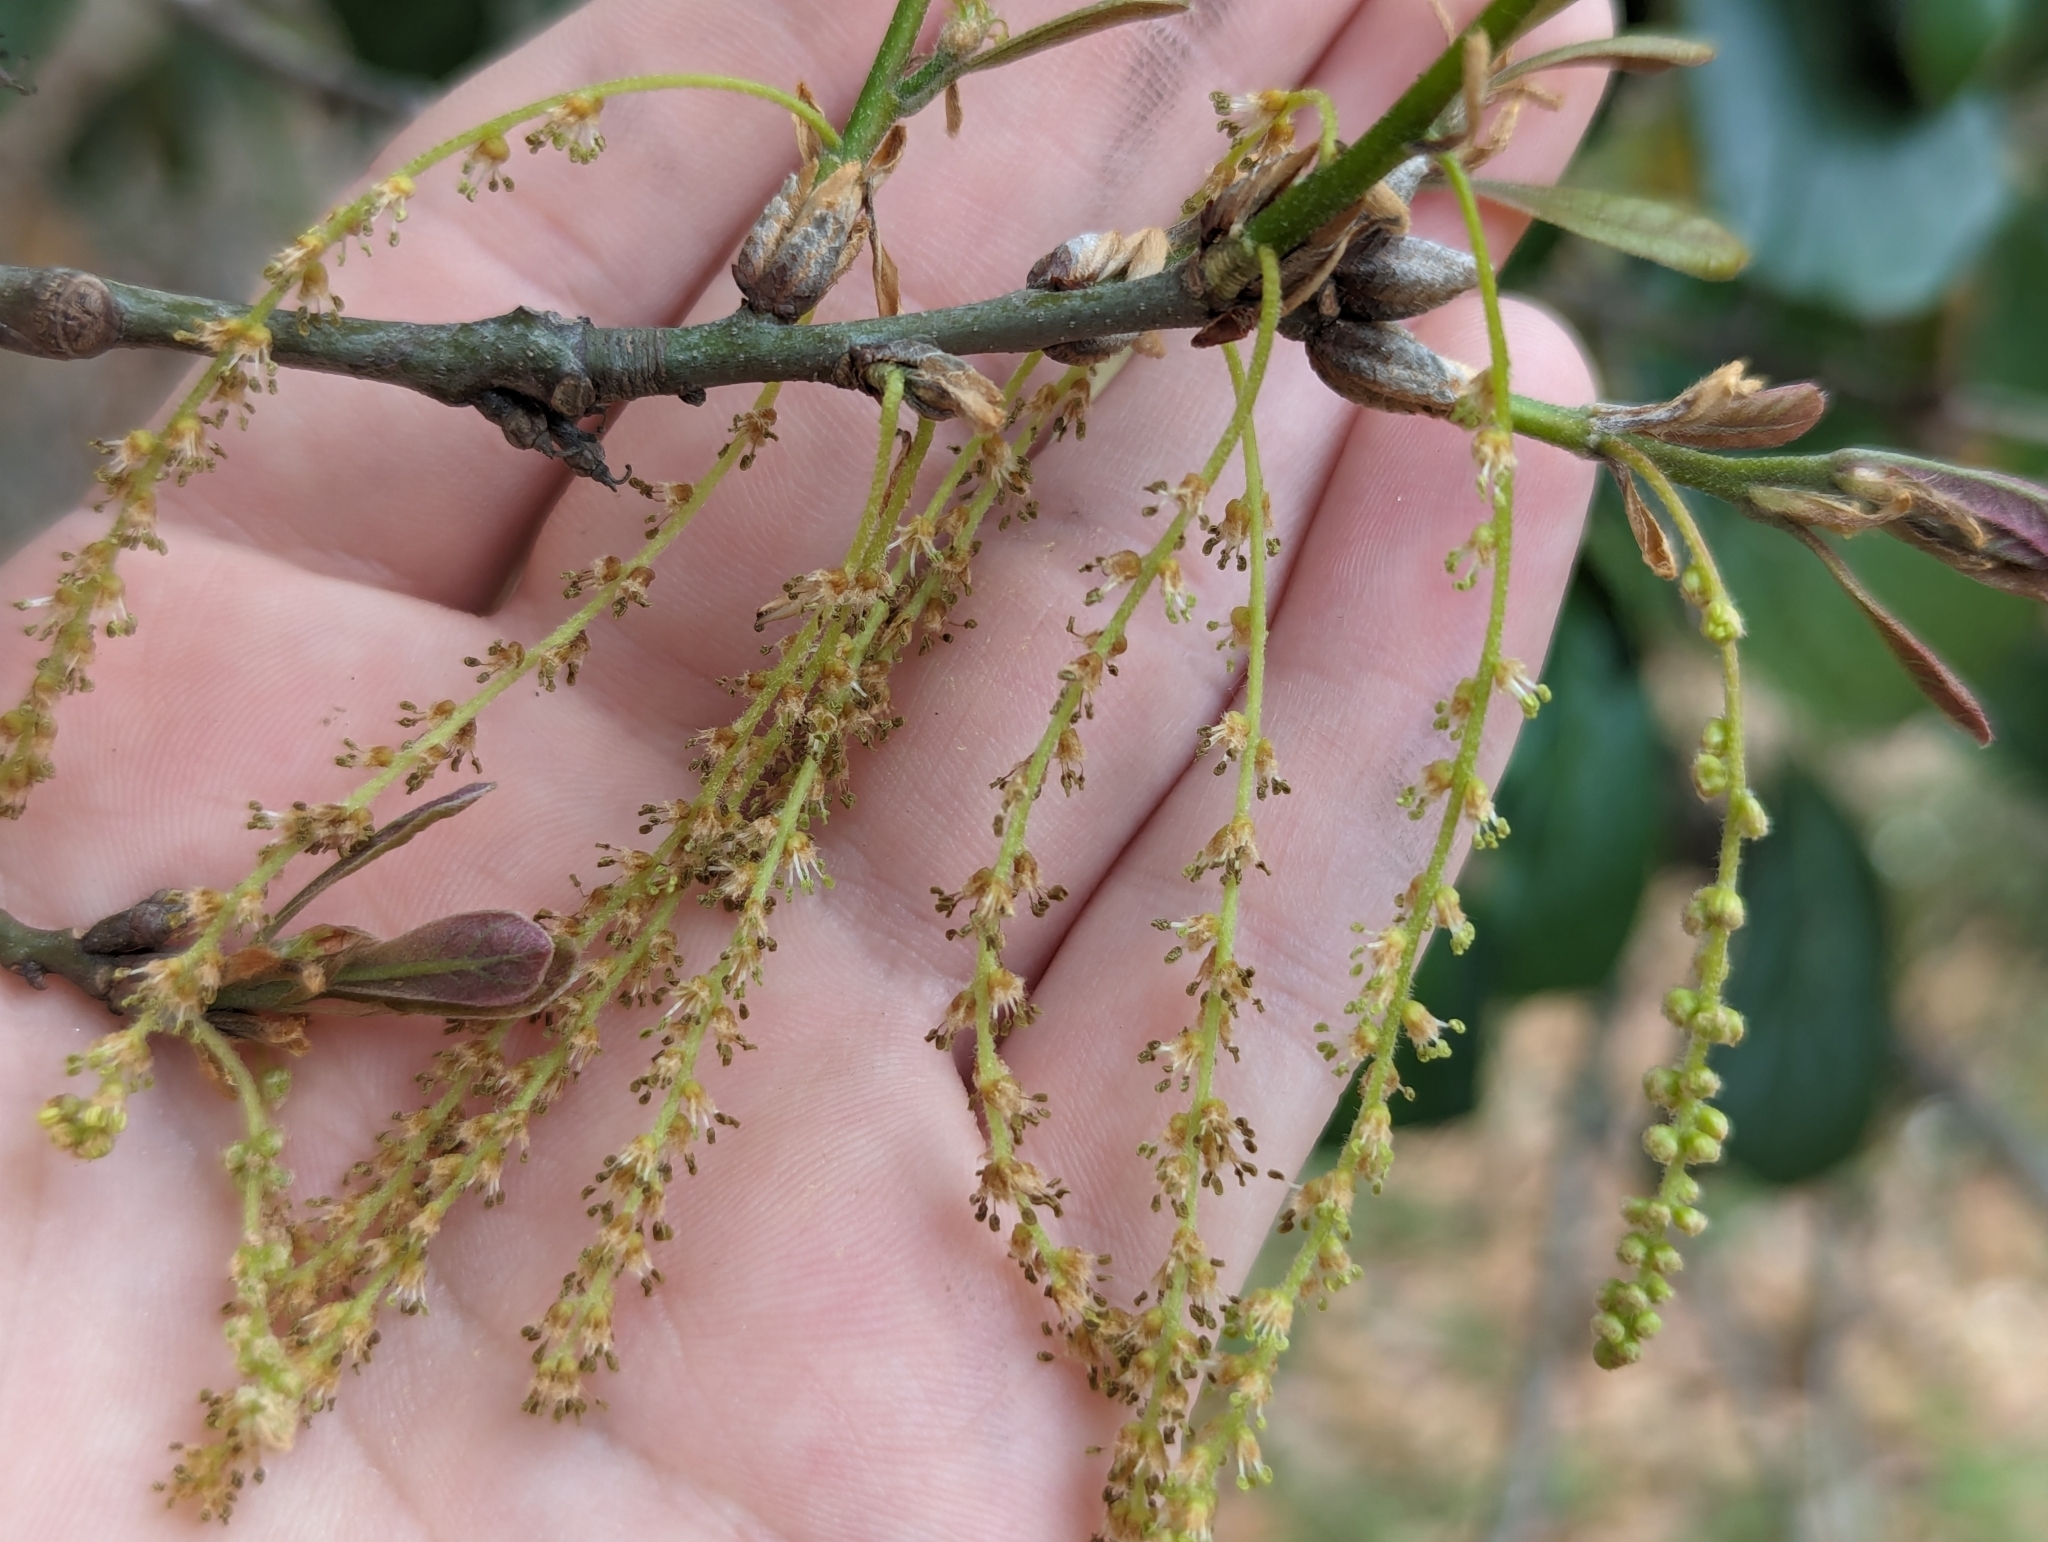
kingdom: Plantae
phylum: Tracheophyta
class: Magnoliopsida
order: Fagales
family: Fagaceae
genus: Quercus
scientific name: Quercus nigra
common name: Water oak
